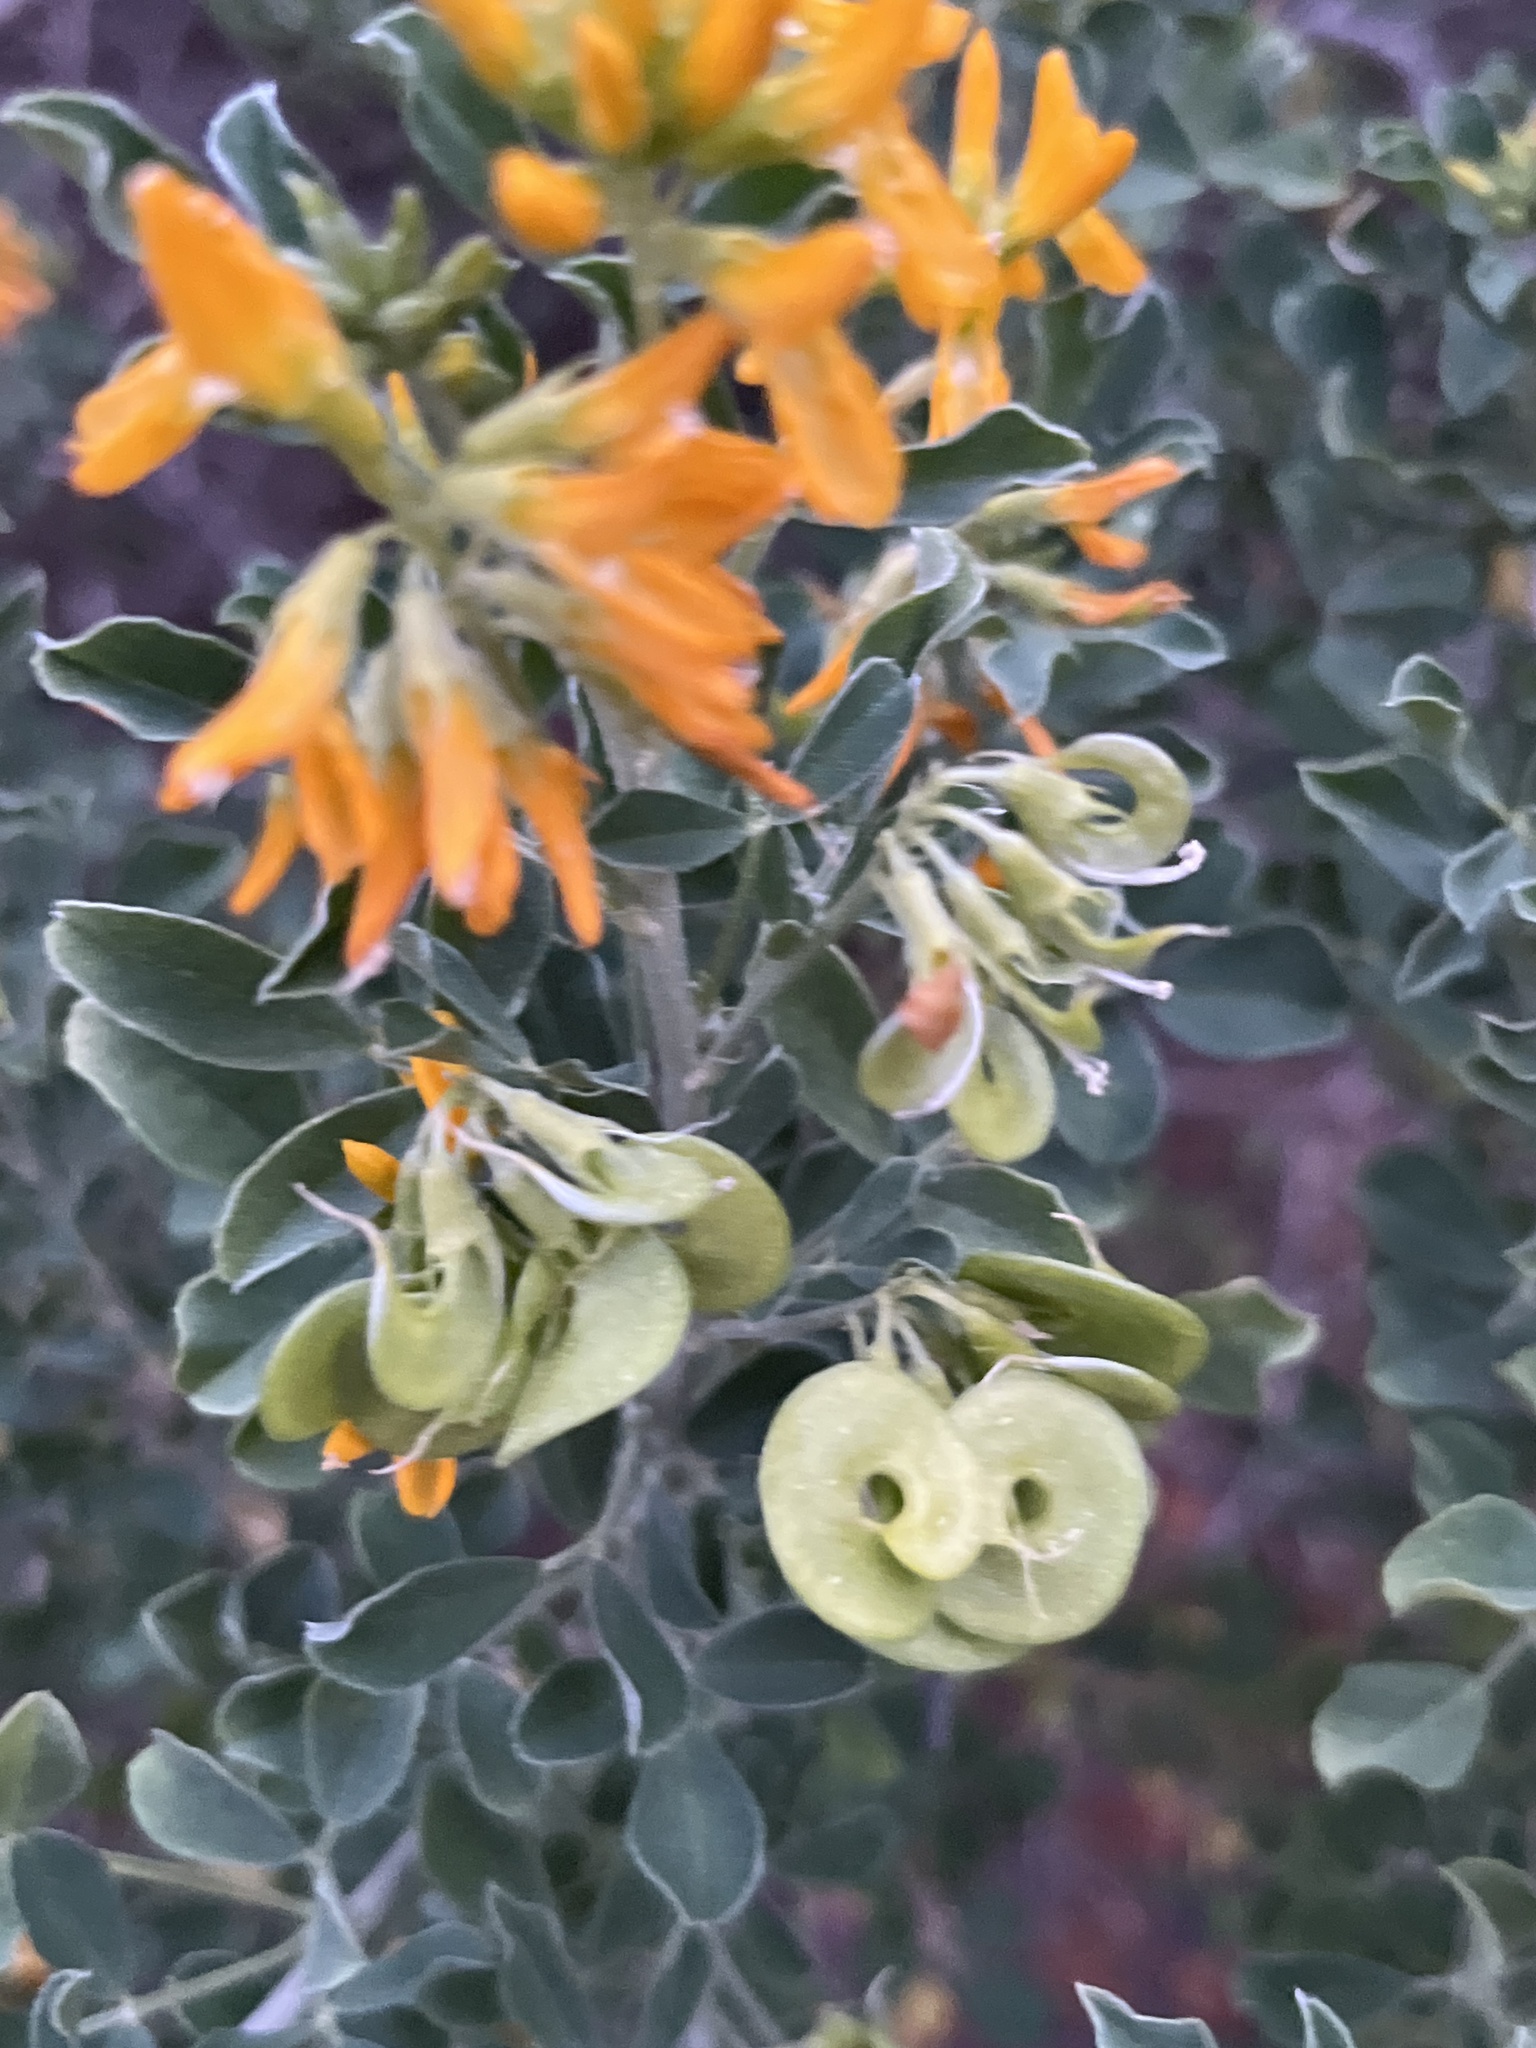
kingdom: Plantae
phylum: Tracheophyta
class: Magnoliopsida
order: Fabales
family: Fabaceae
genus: Medicago
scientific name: Medicago arborea
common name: Moon trefoil
